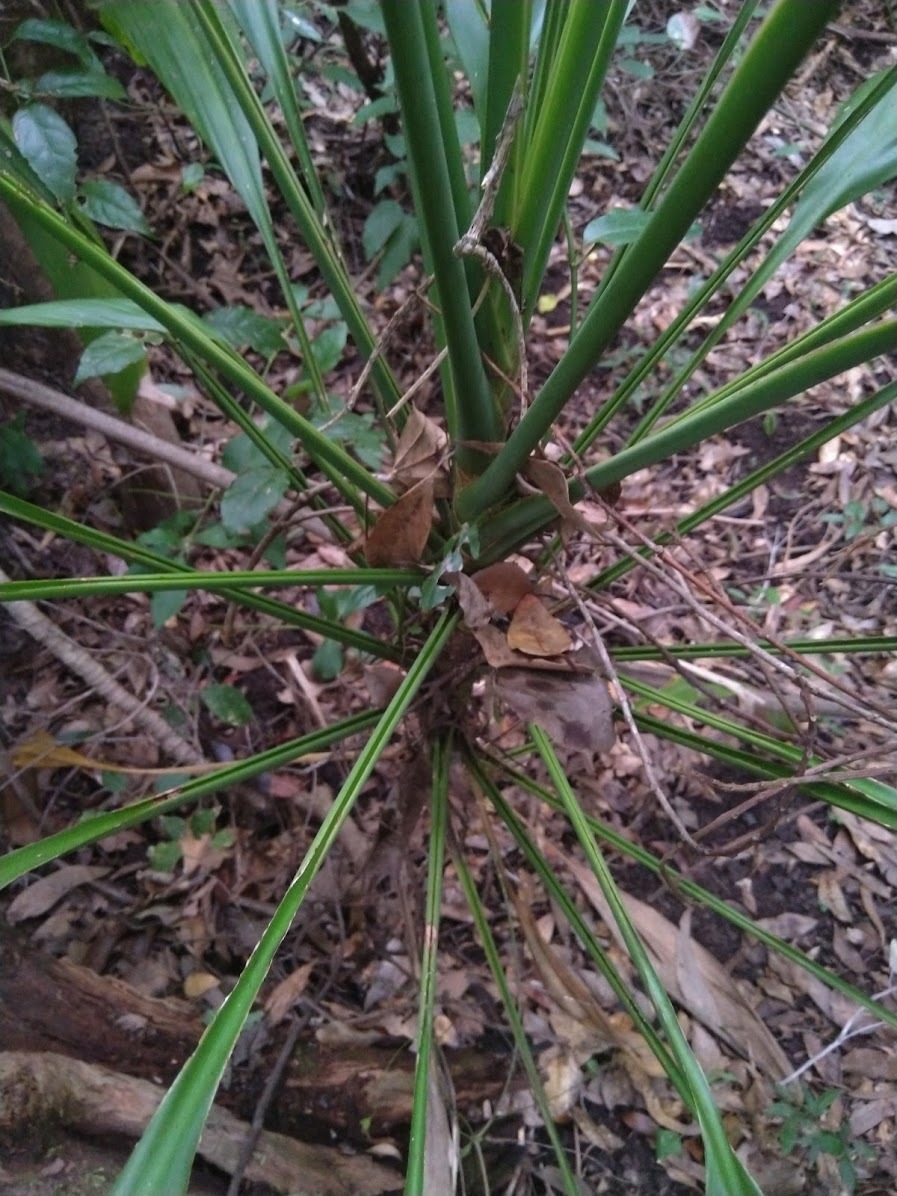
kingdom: Plantae
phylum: Tracheophyta
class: Liliopsida
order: Asparagales
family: Asparagaceae
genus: Cordyline
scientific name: Cordyline petiolaris
